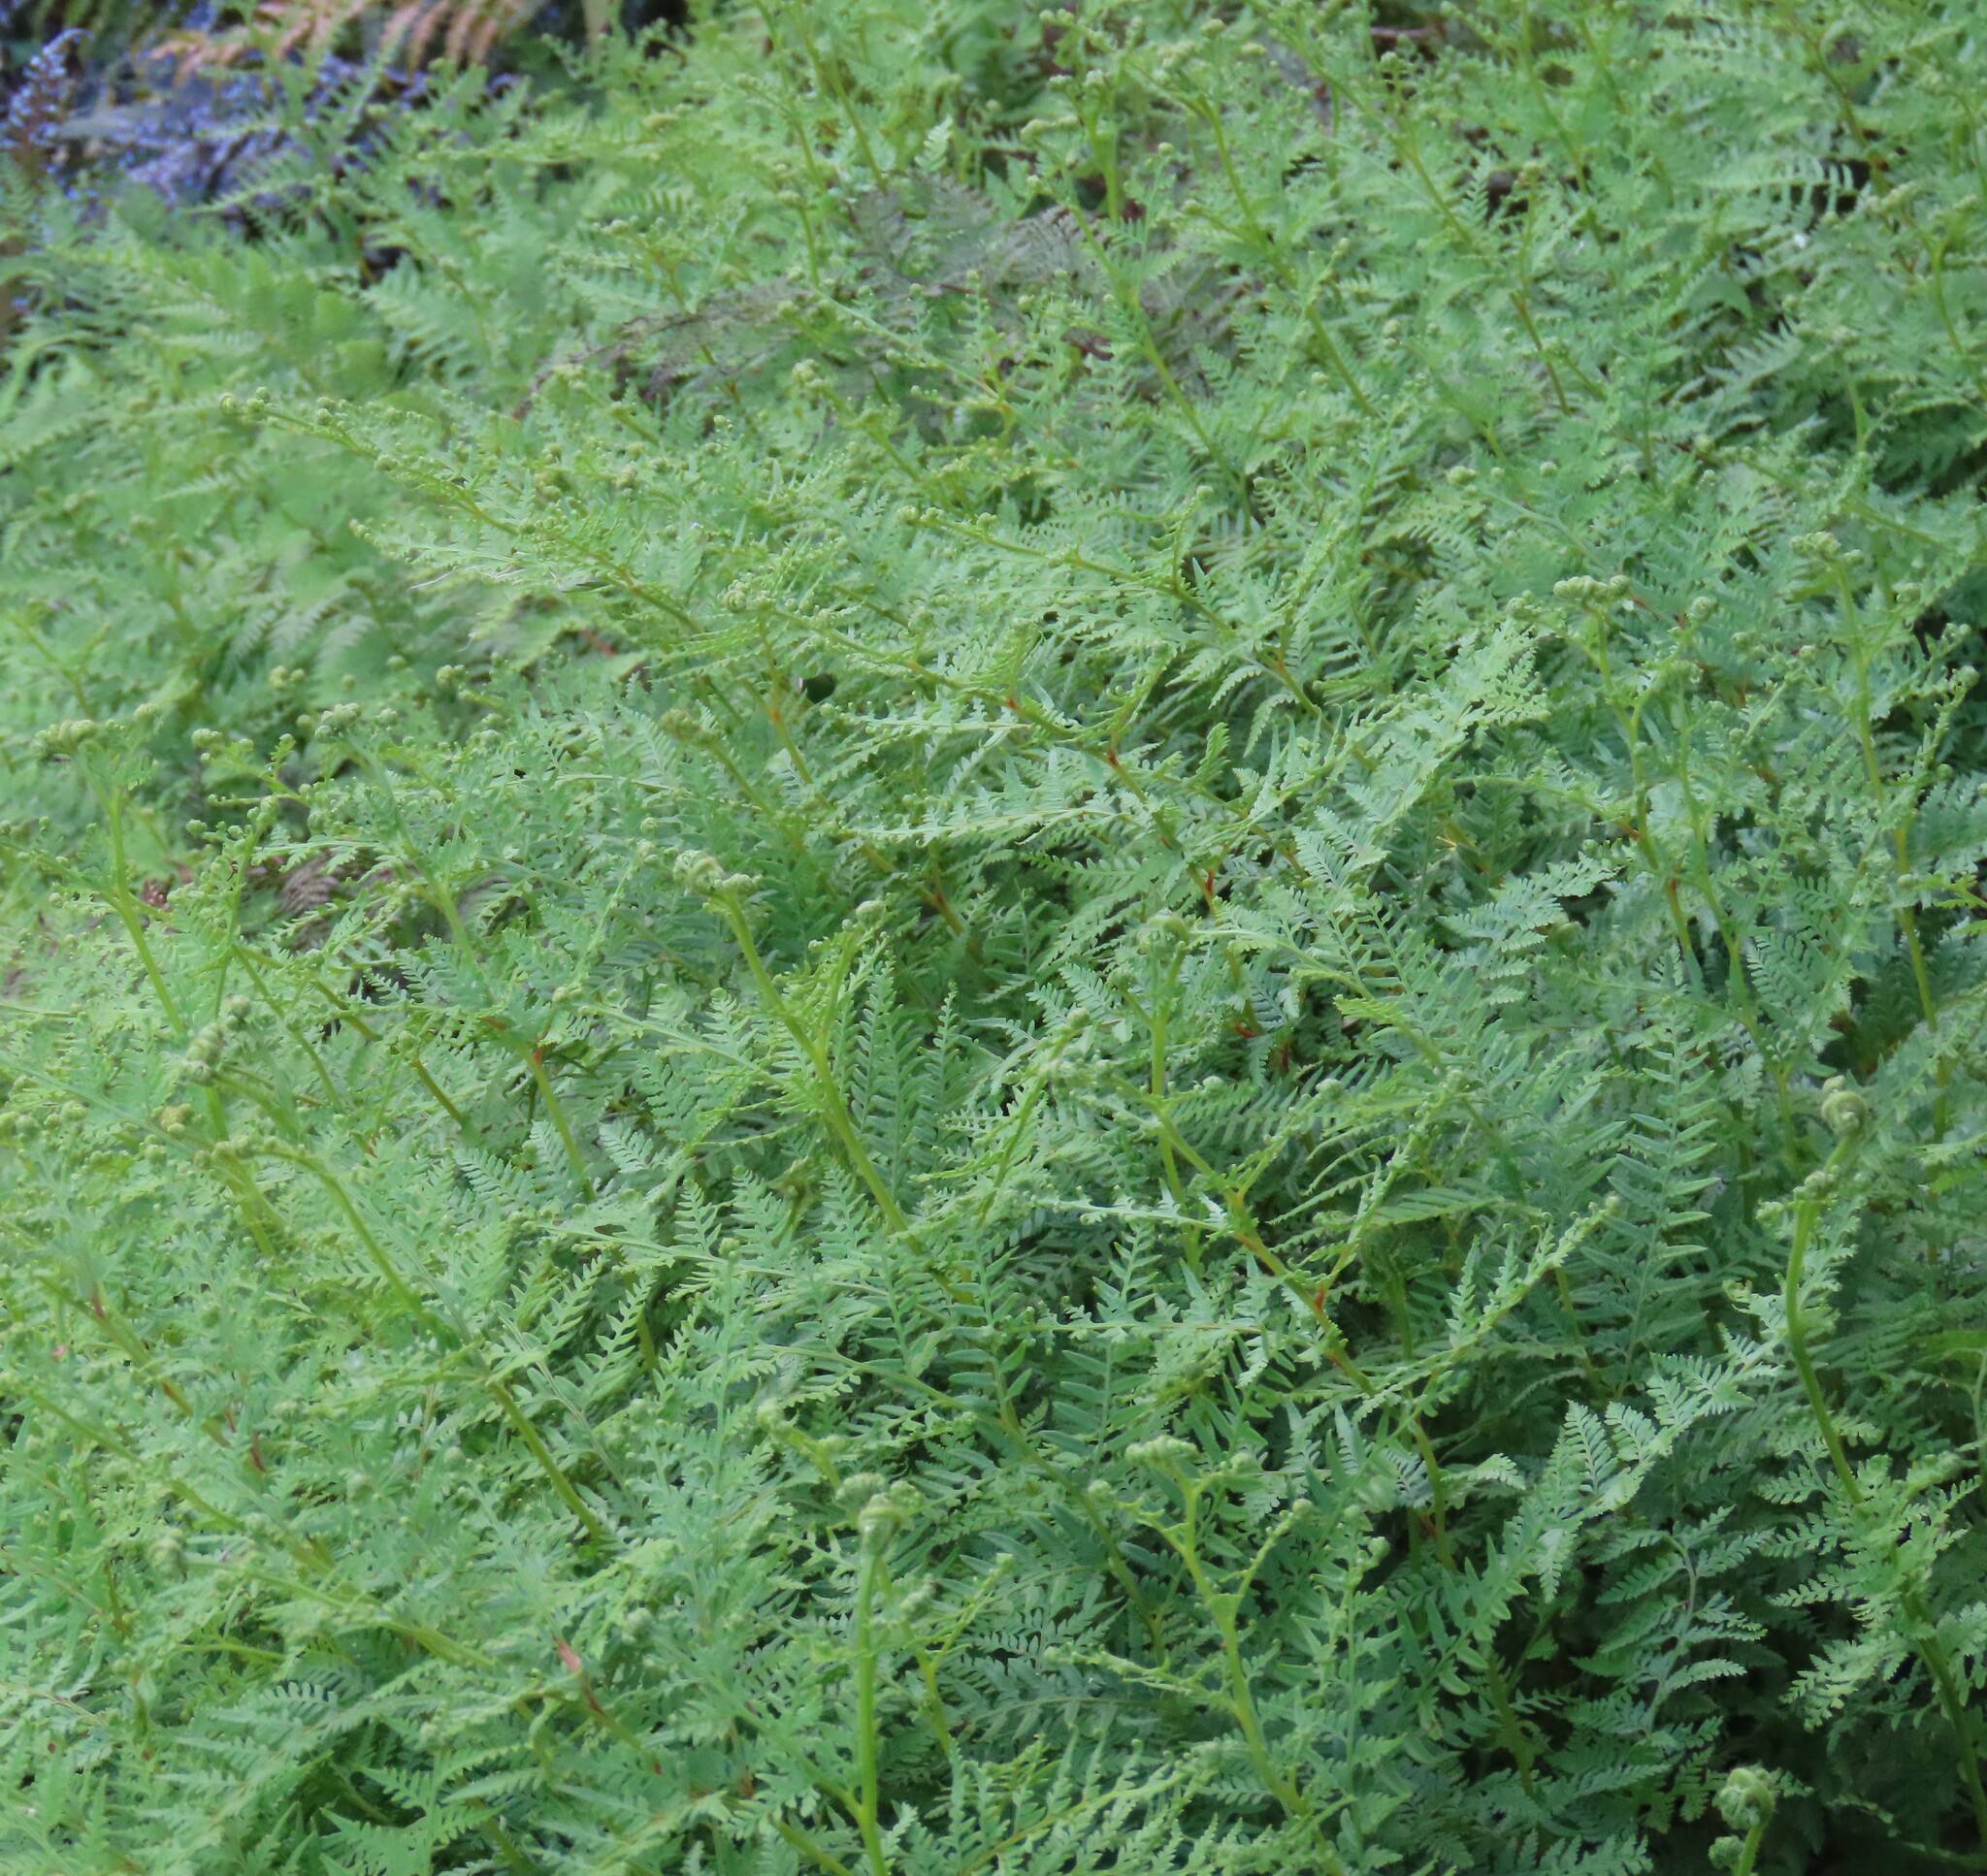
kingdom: Plantae
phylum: Tracheophyta
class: Polypodiopsida
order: Polypodiales
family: Dennstaedtiaceae
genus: Paesia
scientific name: Paesia scaberula
